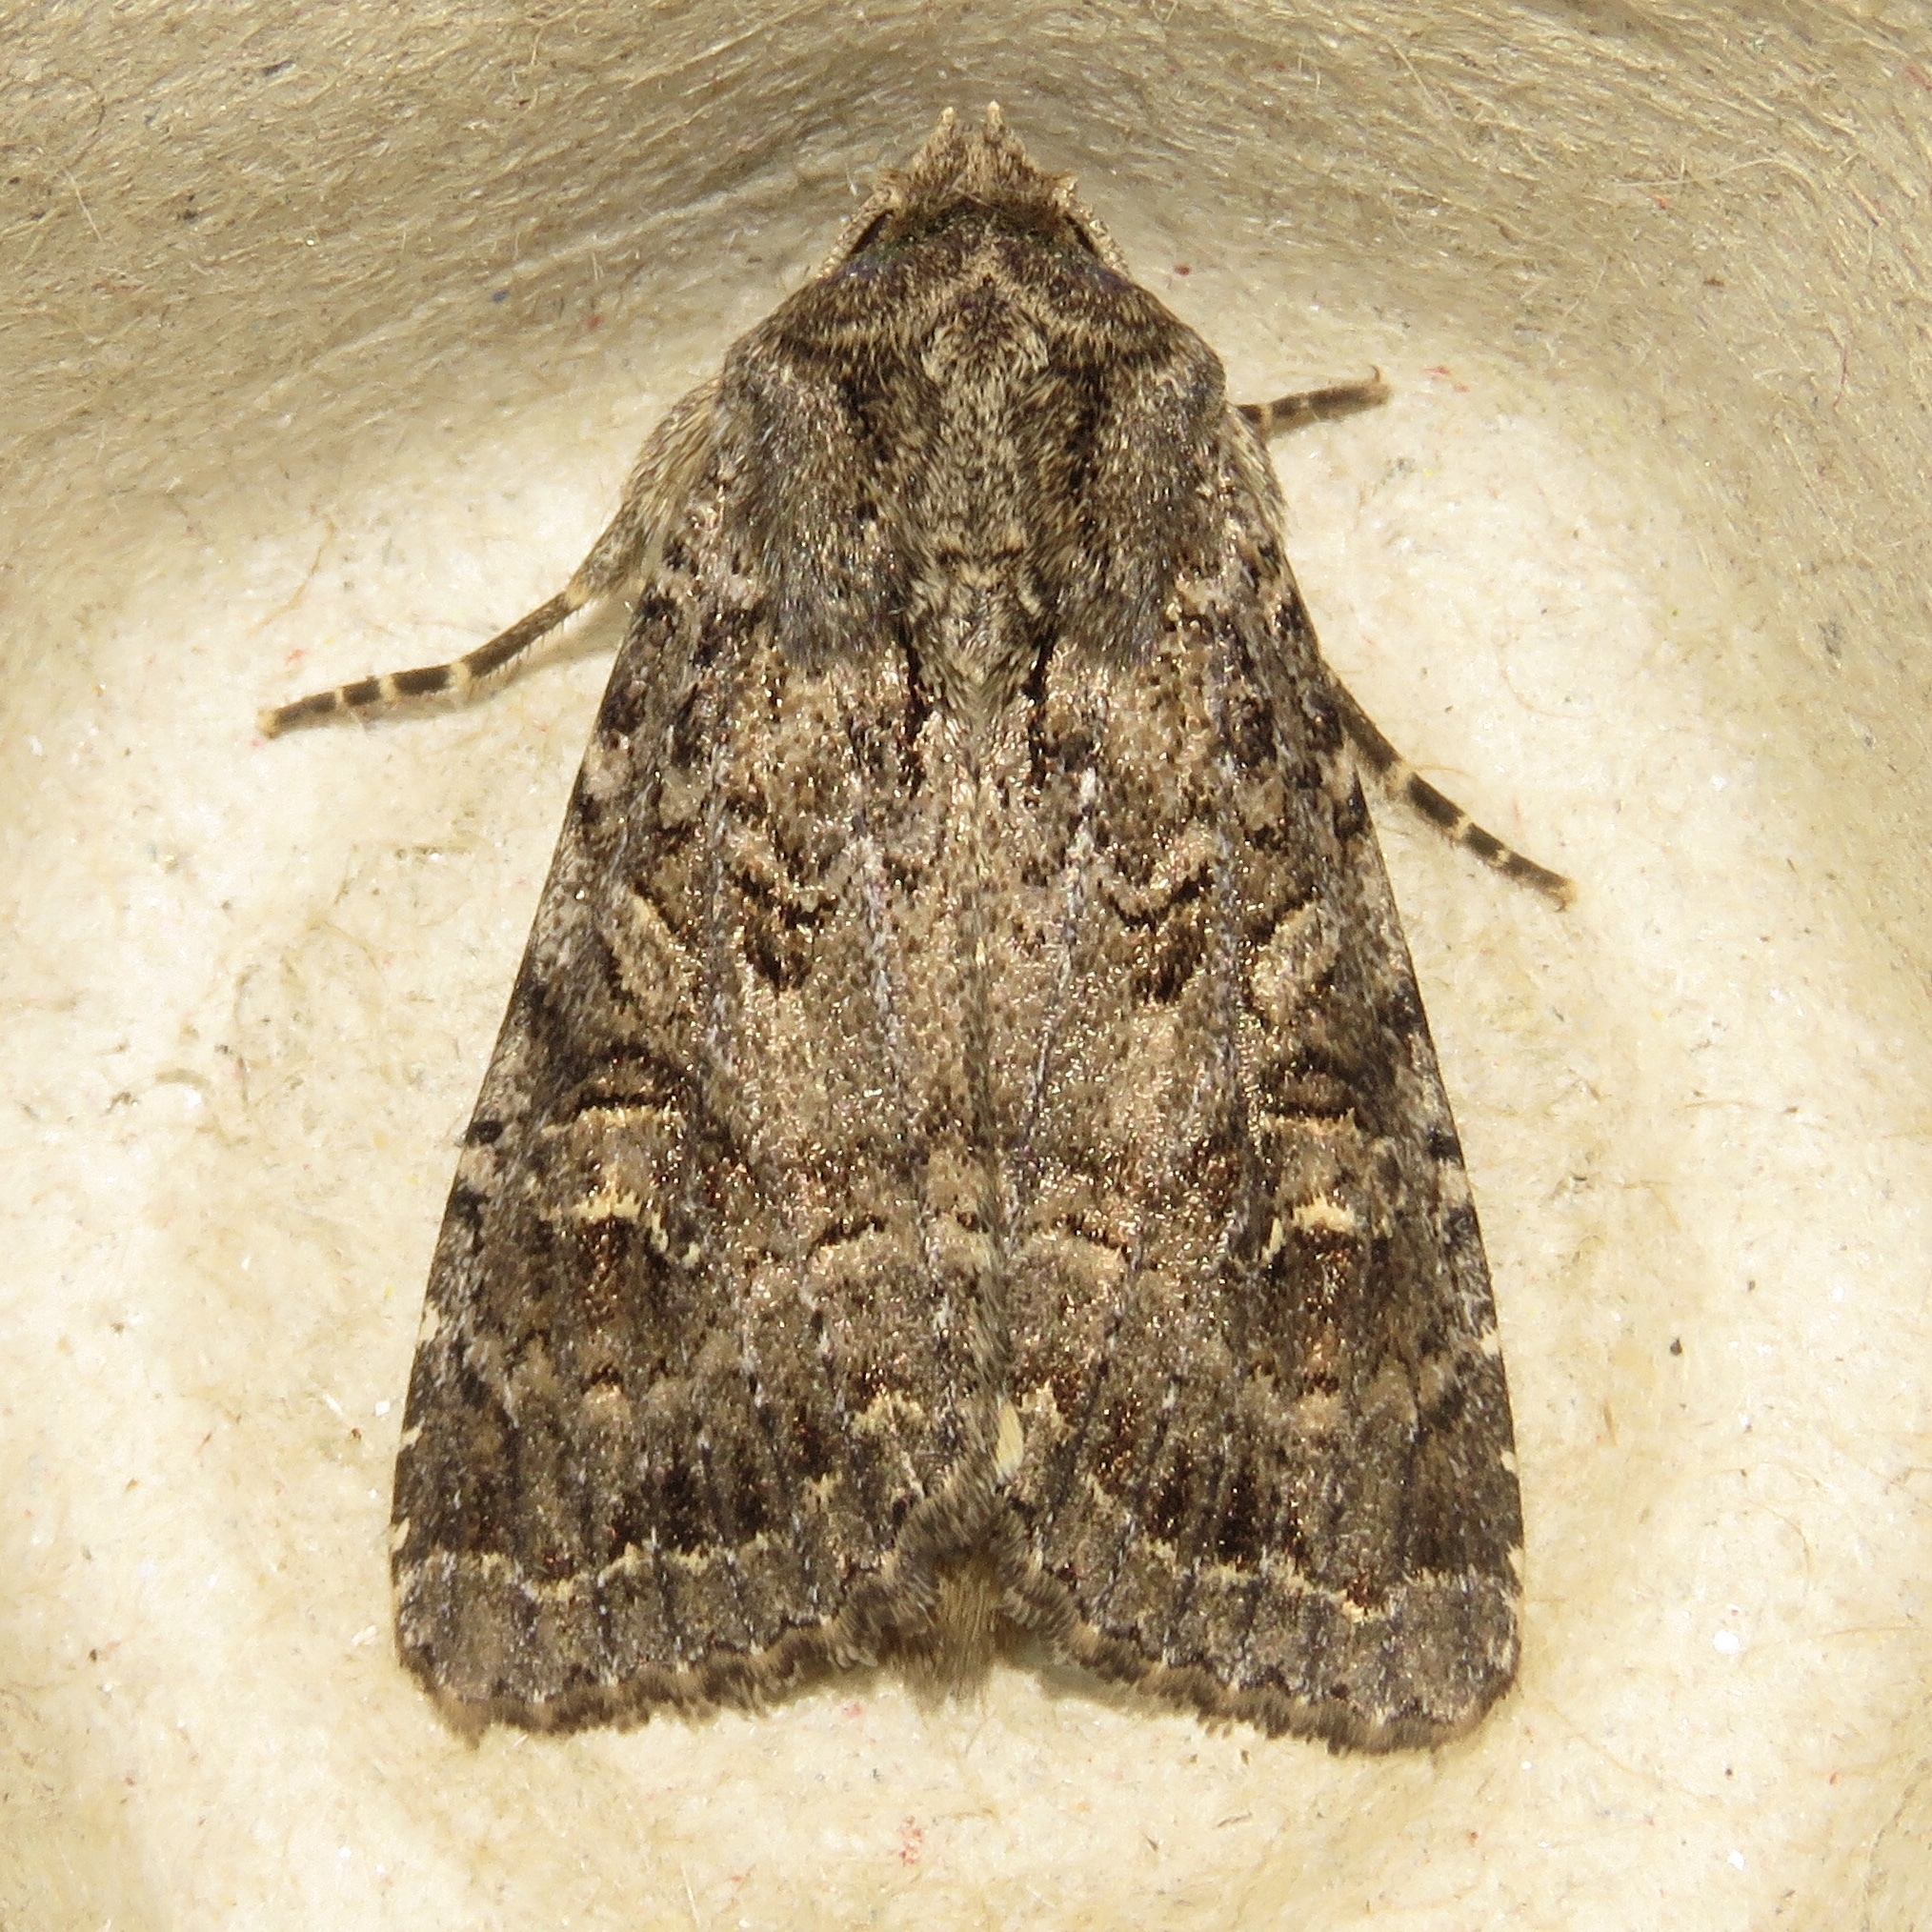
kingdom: Animalia
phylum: Arthropoda
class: Insecta
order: Lepidoptera
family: Noctuidae
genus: Apamea
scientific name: Apamea devastator
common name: Glassy cutworm
